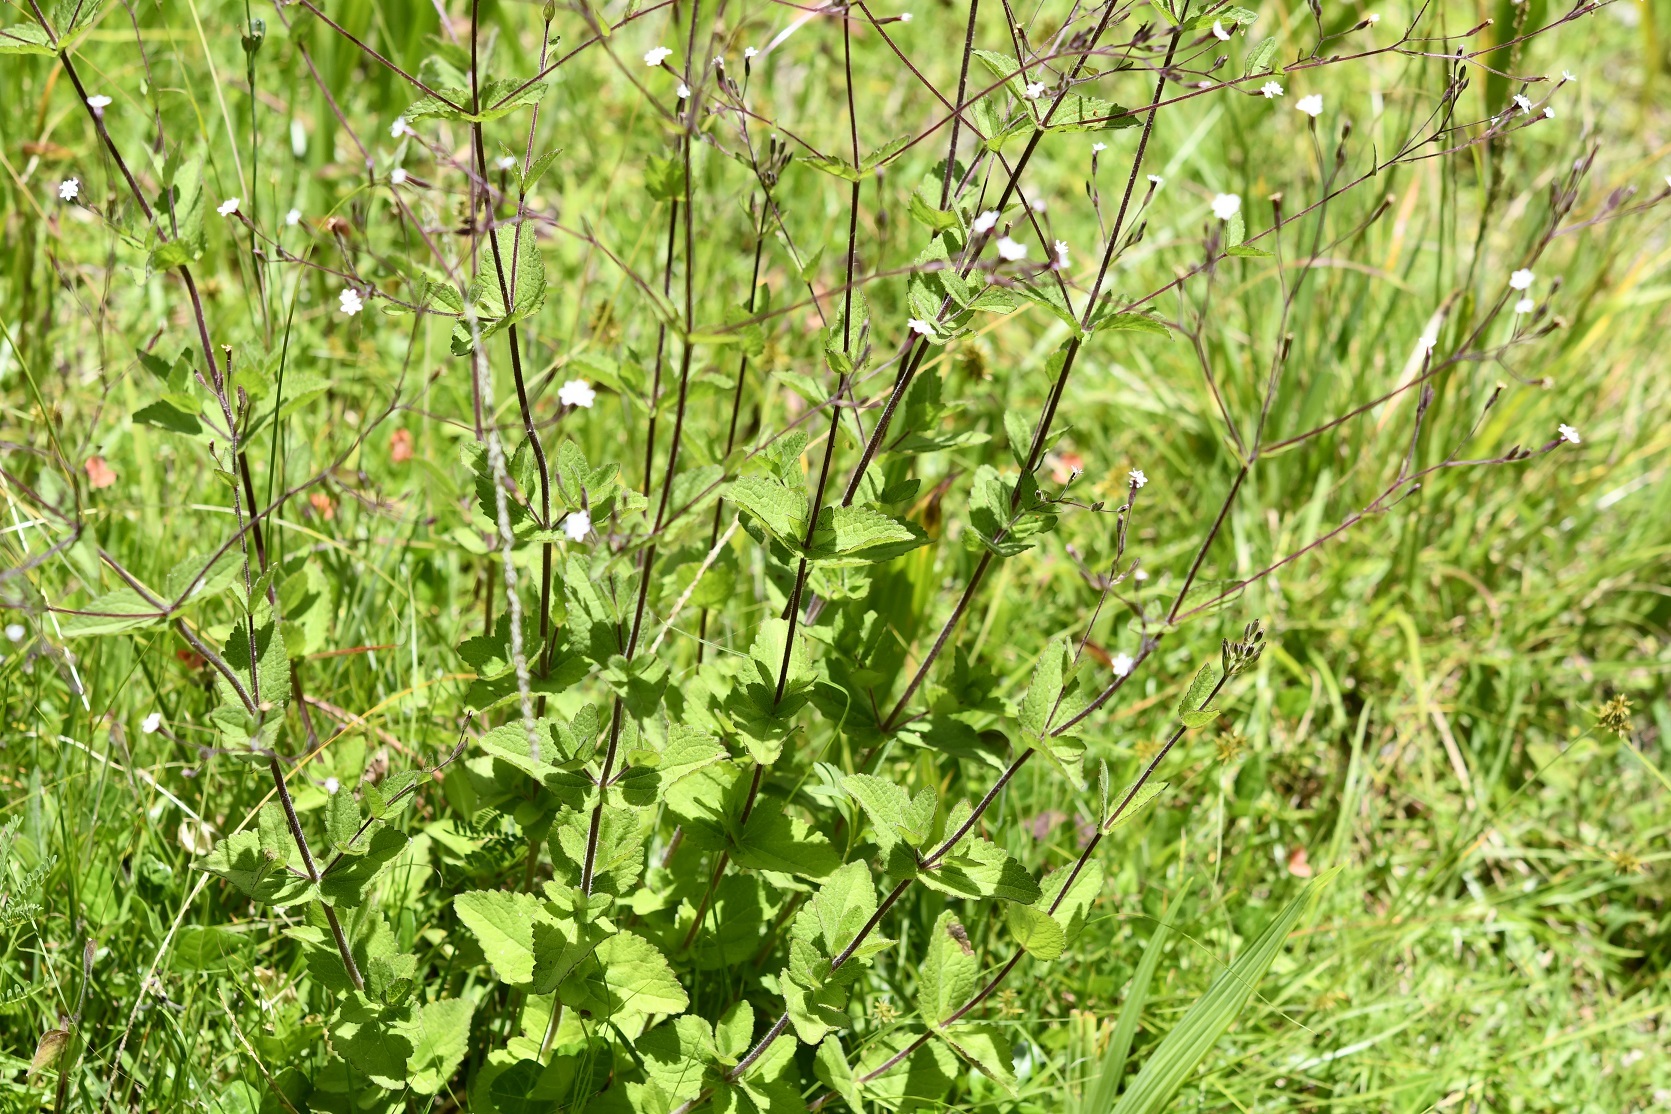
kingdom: Plantae
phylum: Tracheophyta
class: Magnoliopsida
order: Asterales
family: Asteraceae
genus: Stevia
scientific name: Stevia elatior
